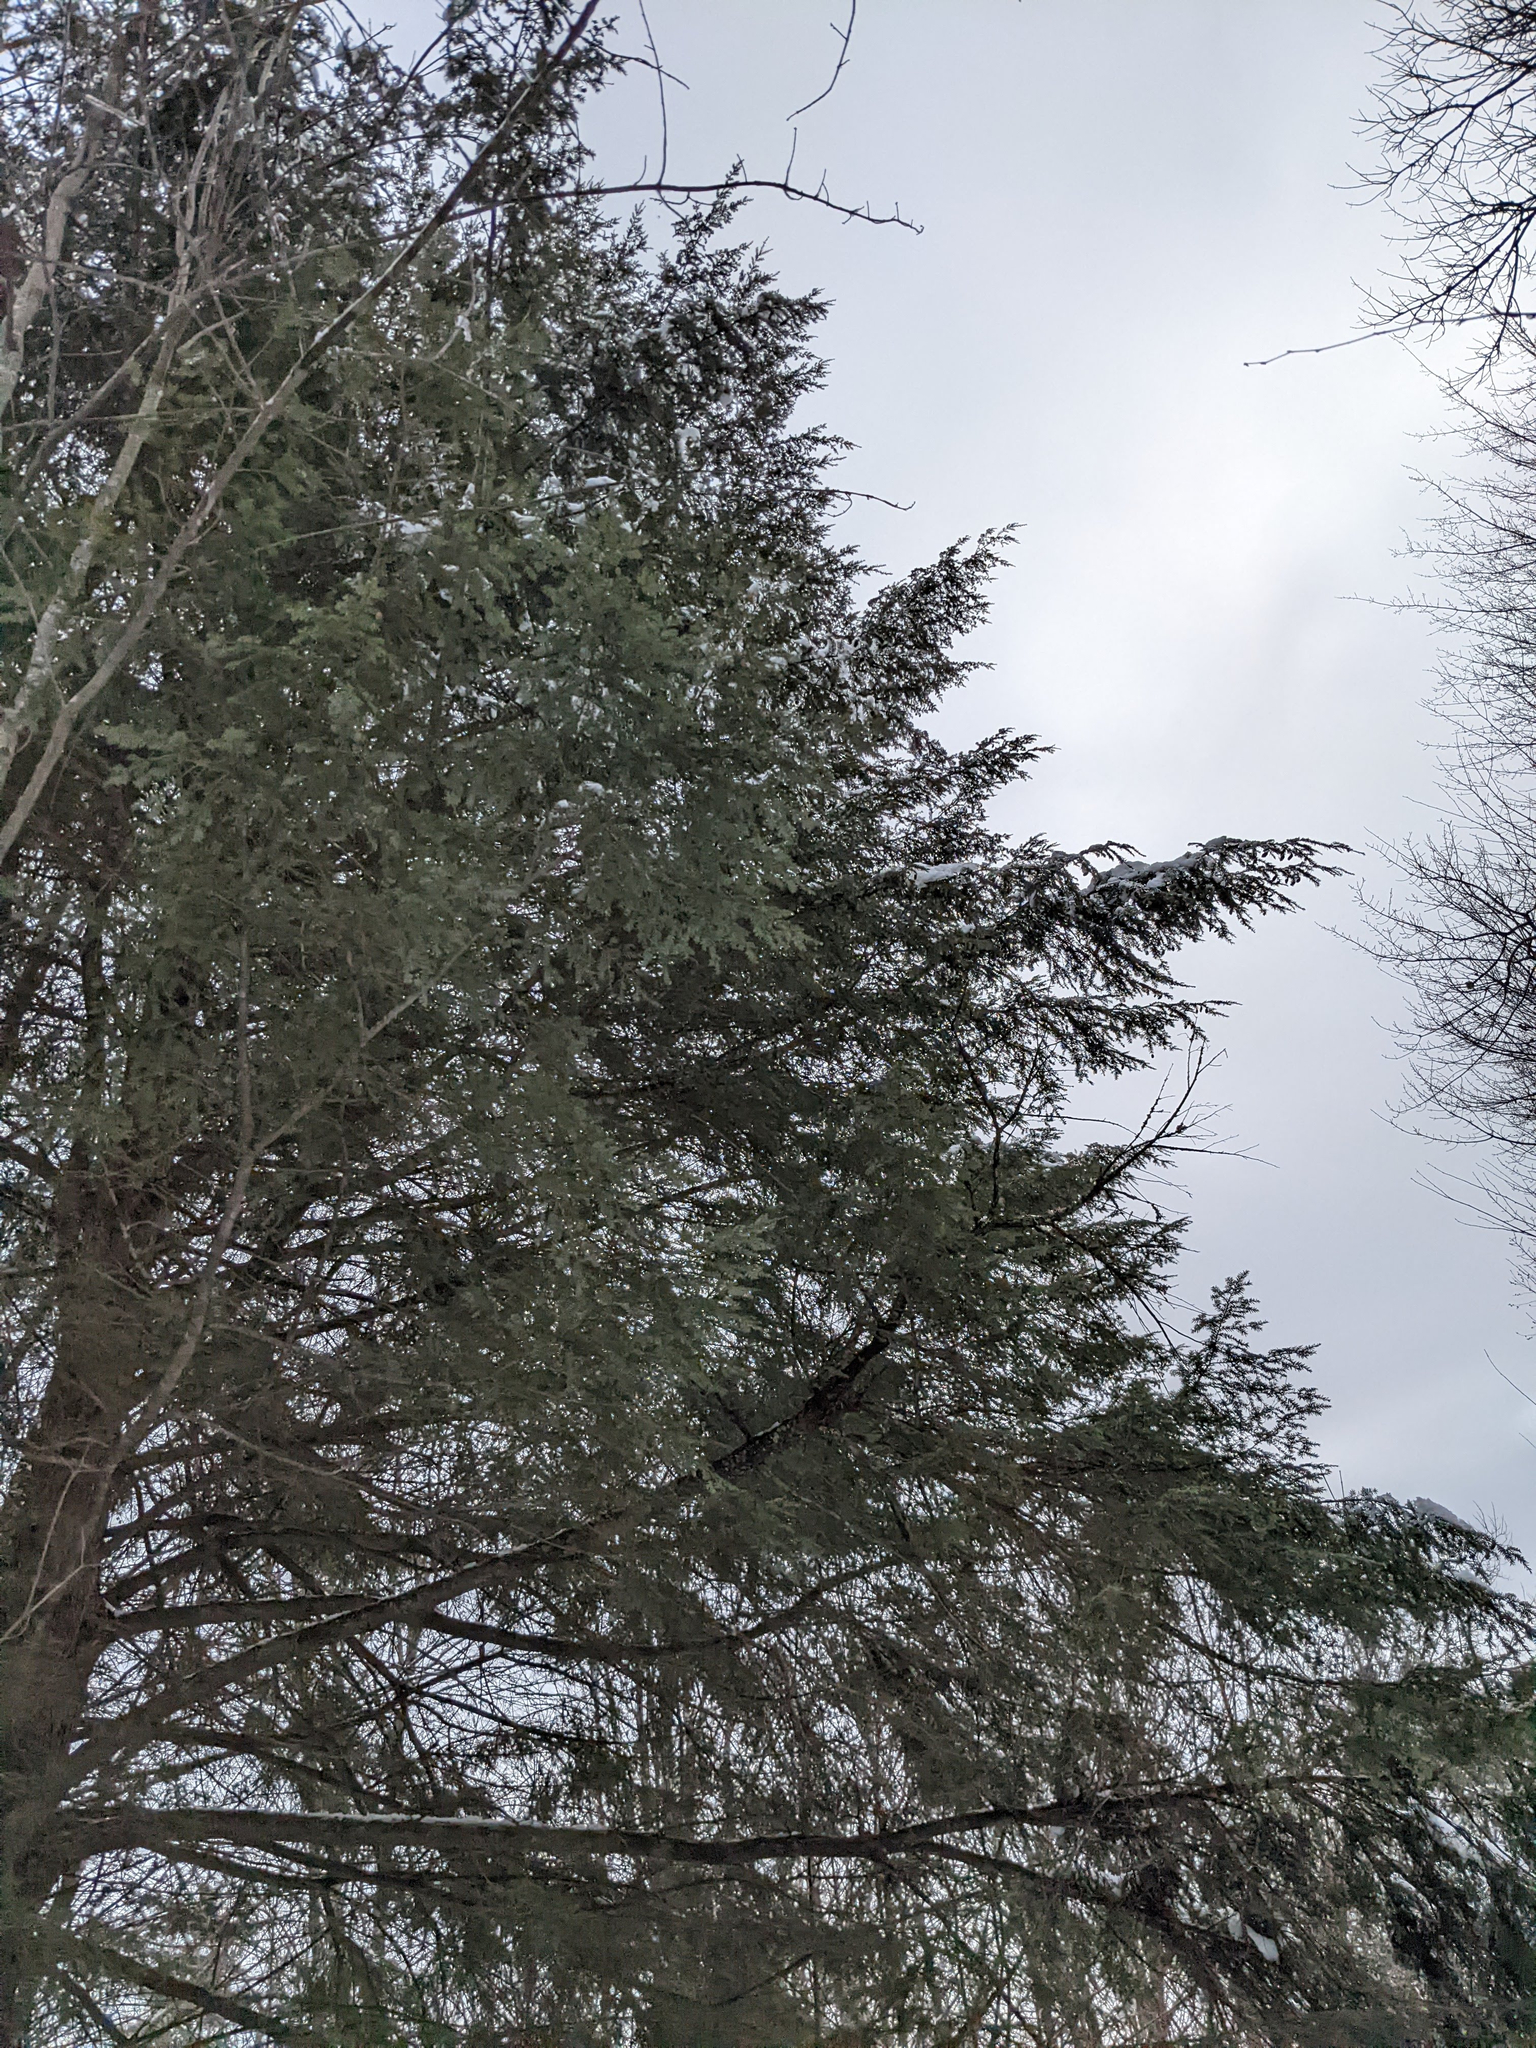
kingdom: Plantae
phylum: Tracheophyta
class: Pinopsida
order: Pinales
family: Pinaceae
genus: Tsuga
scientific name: Tsuga canadensis
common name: Eastern hemlock
